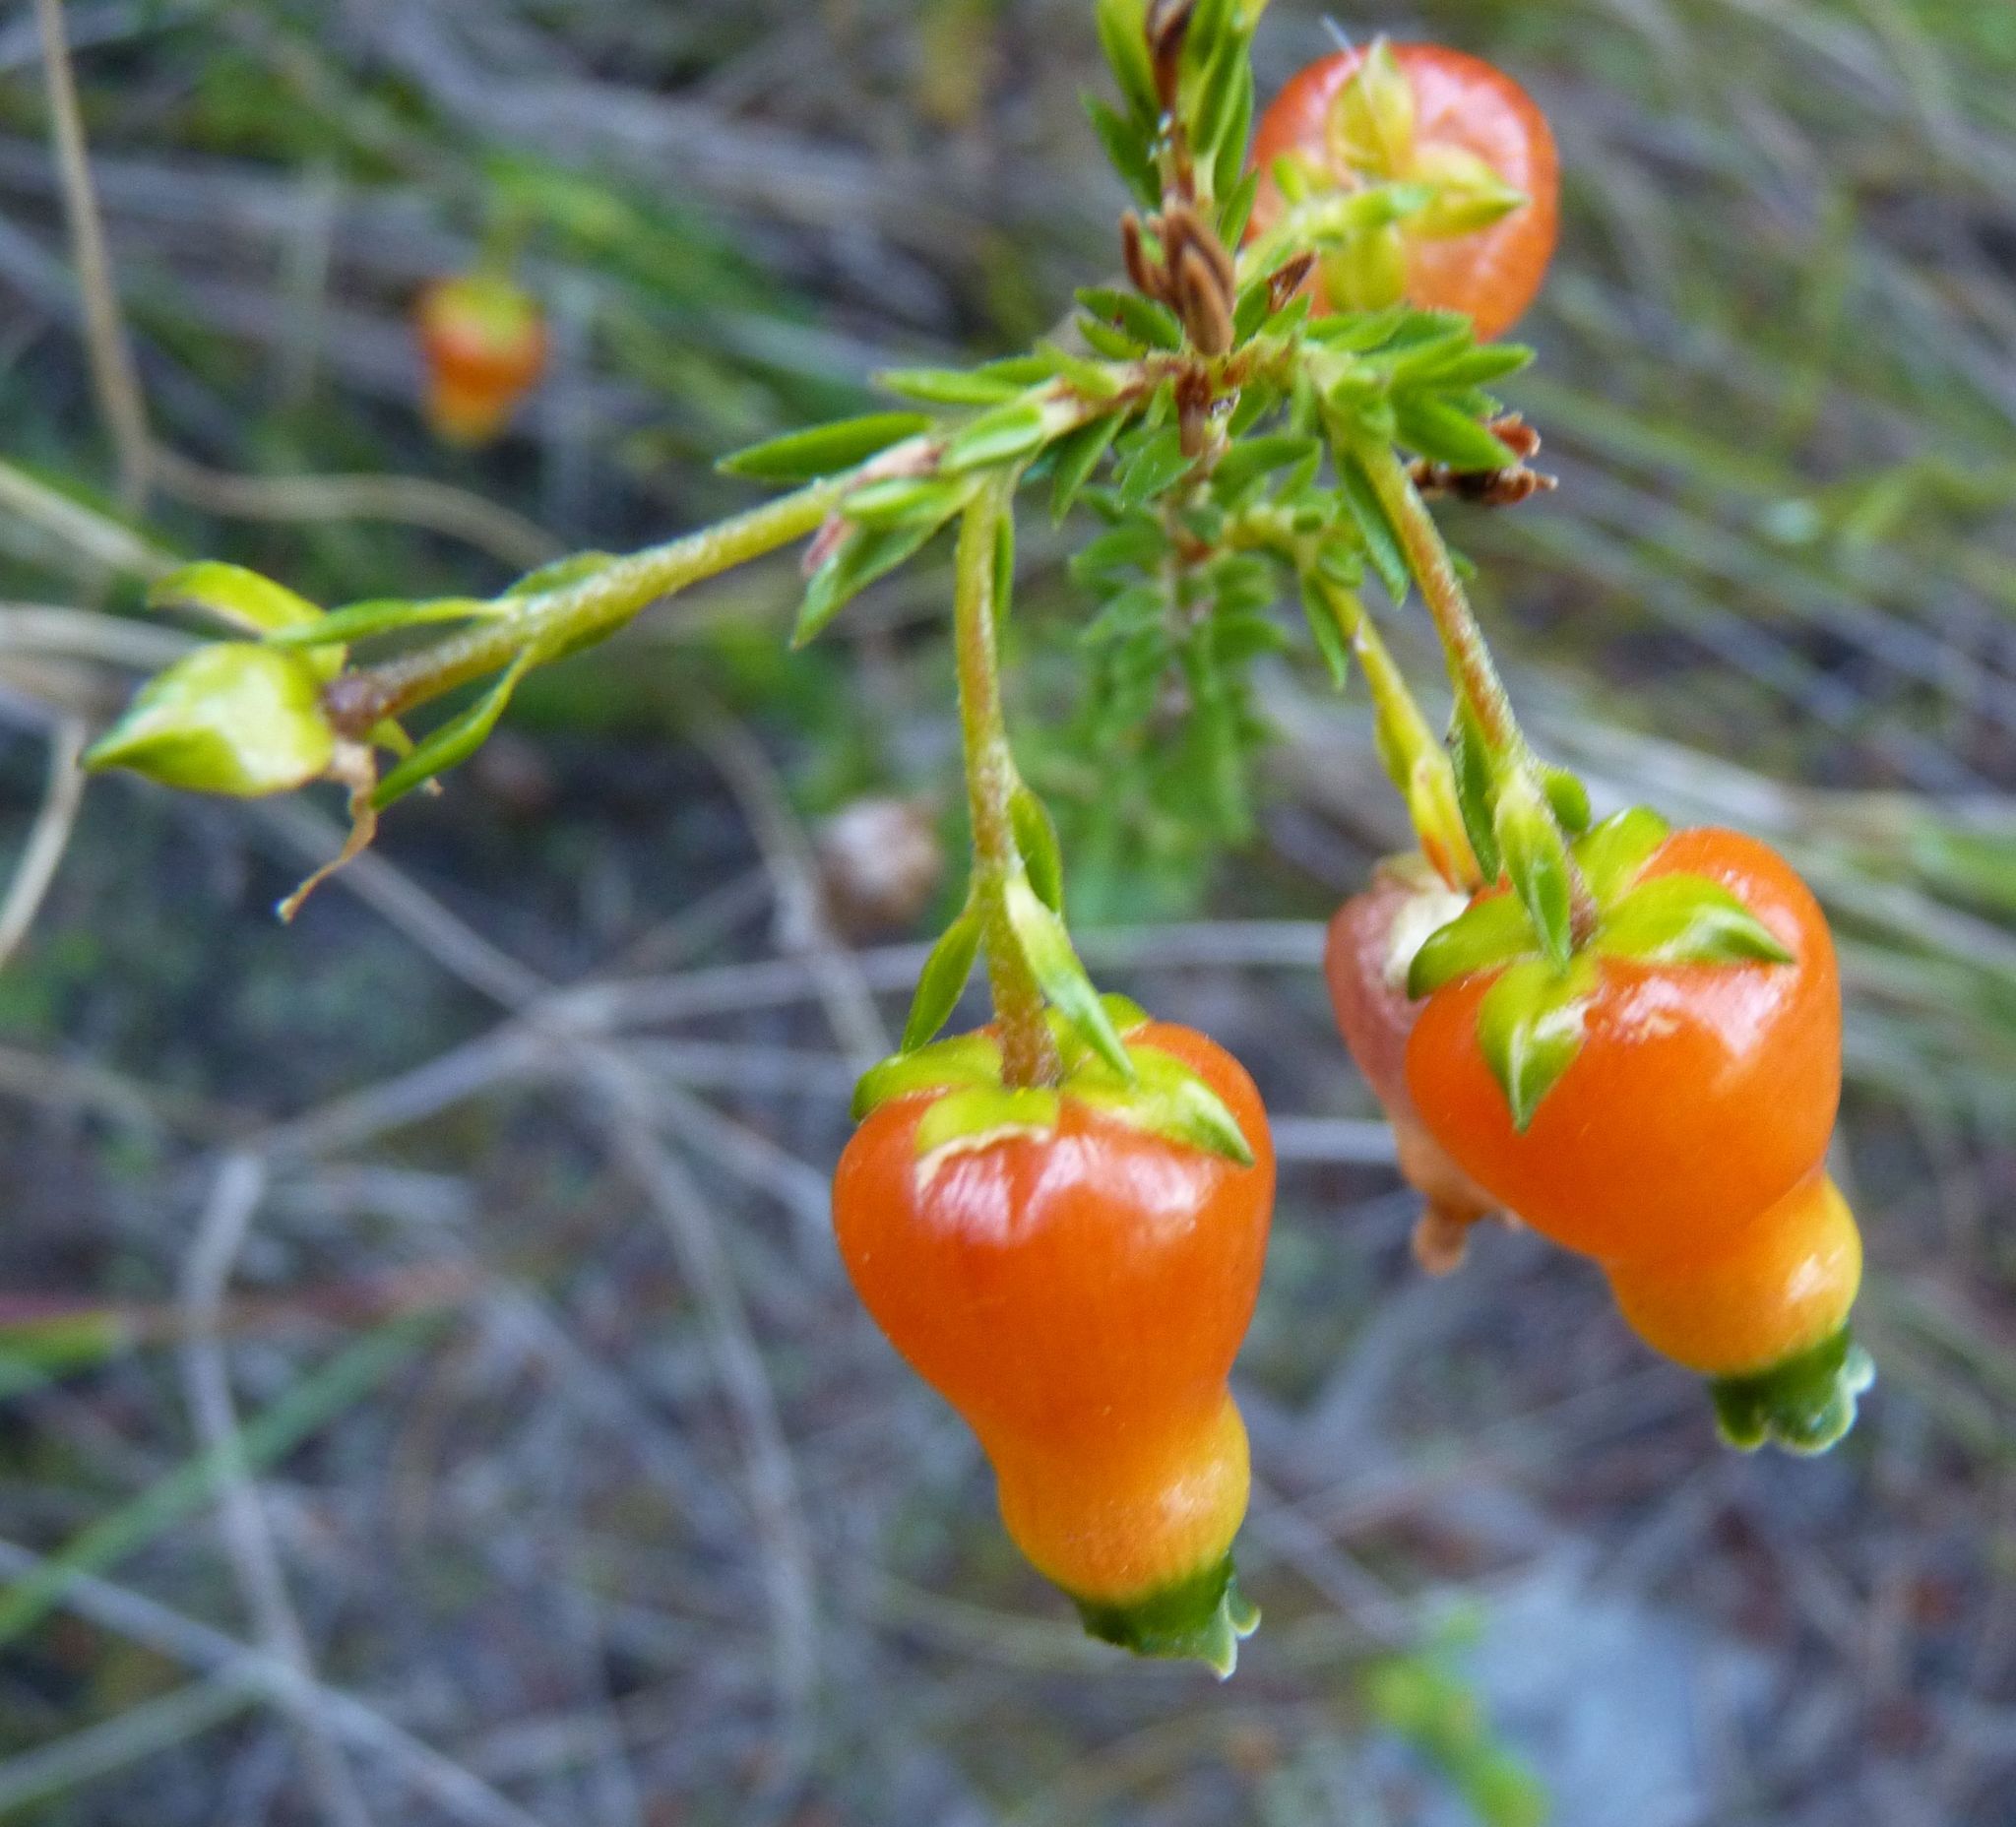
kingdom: Plantae
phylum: Tracheophyta
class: Magnoliopsida
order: Ericales
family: Ericaceae
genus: Erica
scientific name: Erica blenna
